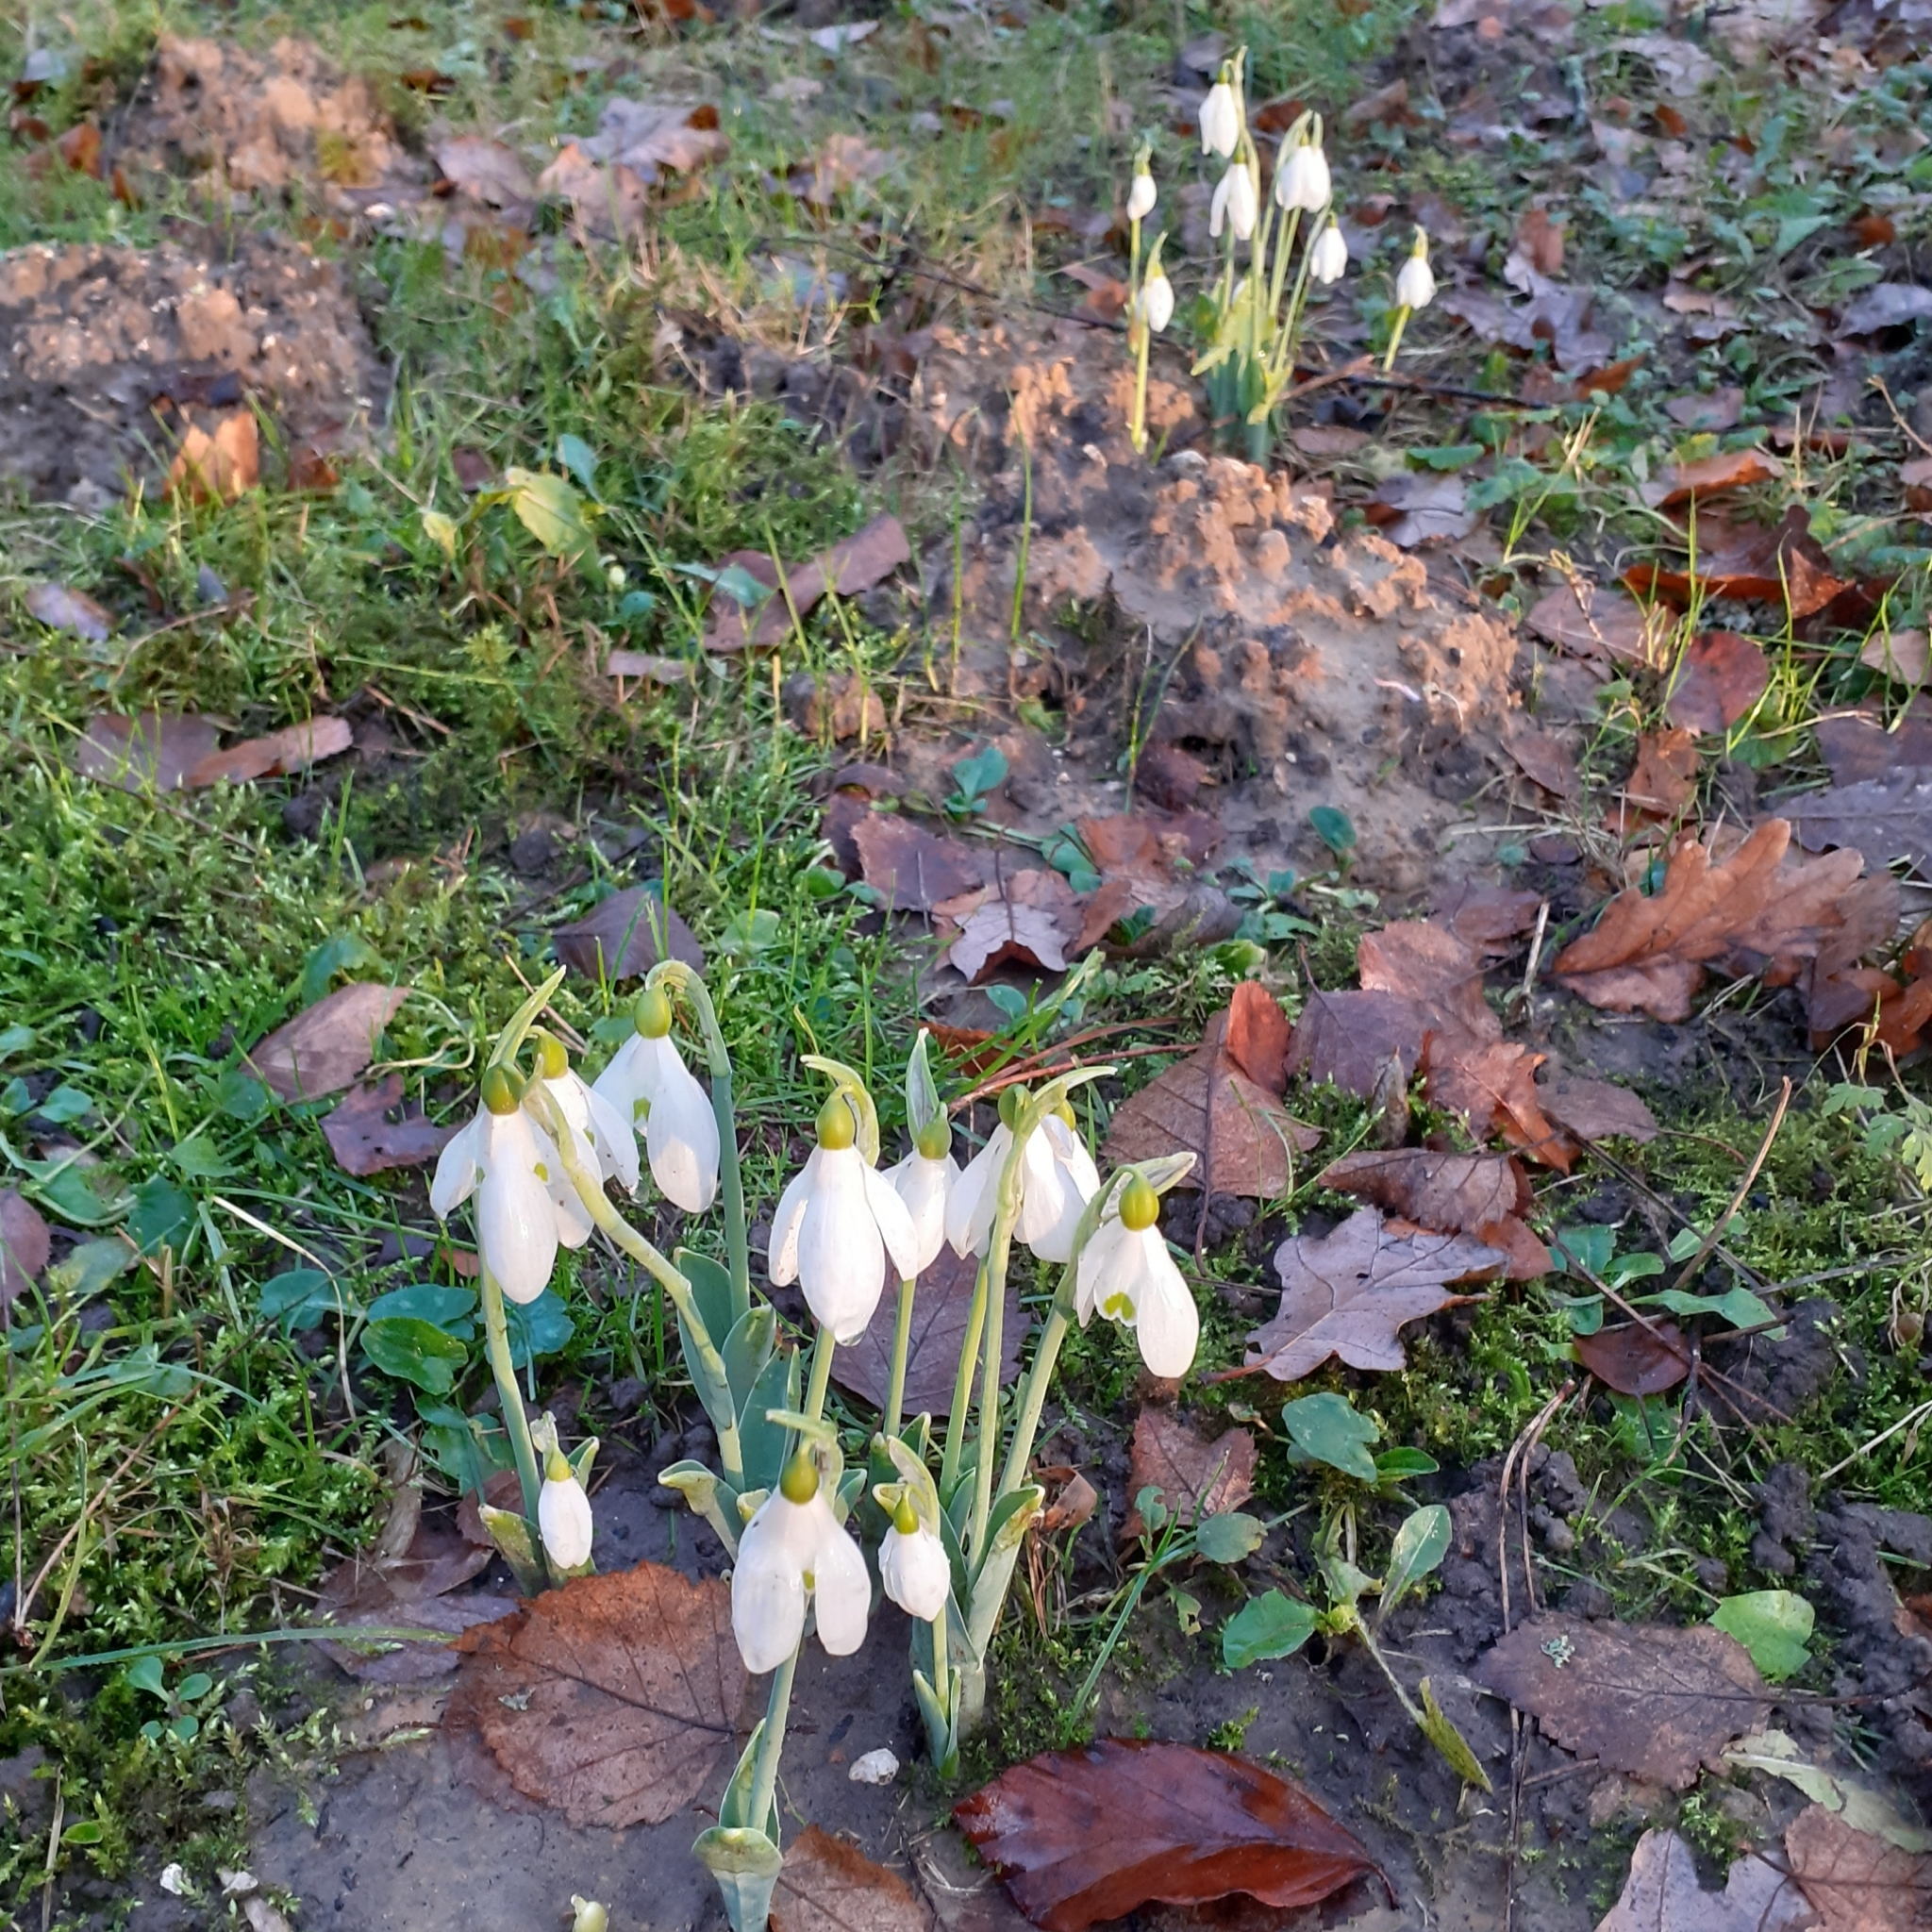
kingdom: Plantae
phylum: Tracheophyta
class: Liliopsida
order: Asparagales
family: Amaryllidaceae
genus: Galanthus
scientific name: Galanthus elwesii
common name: Greater snowdrop
